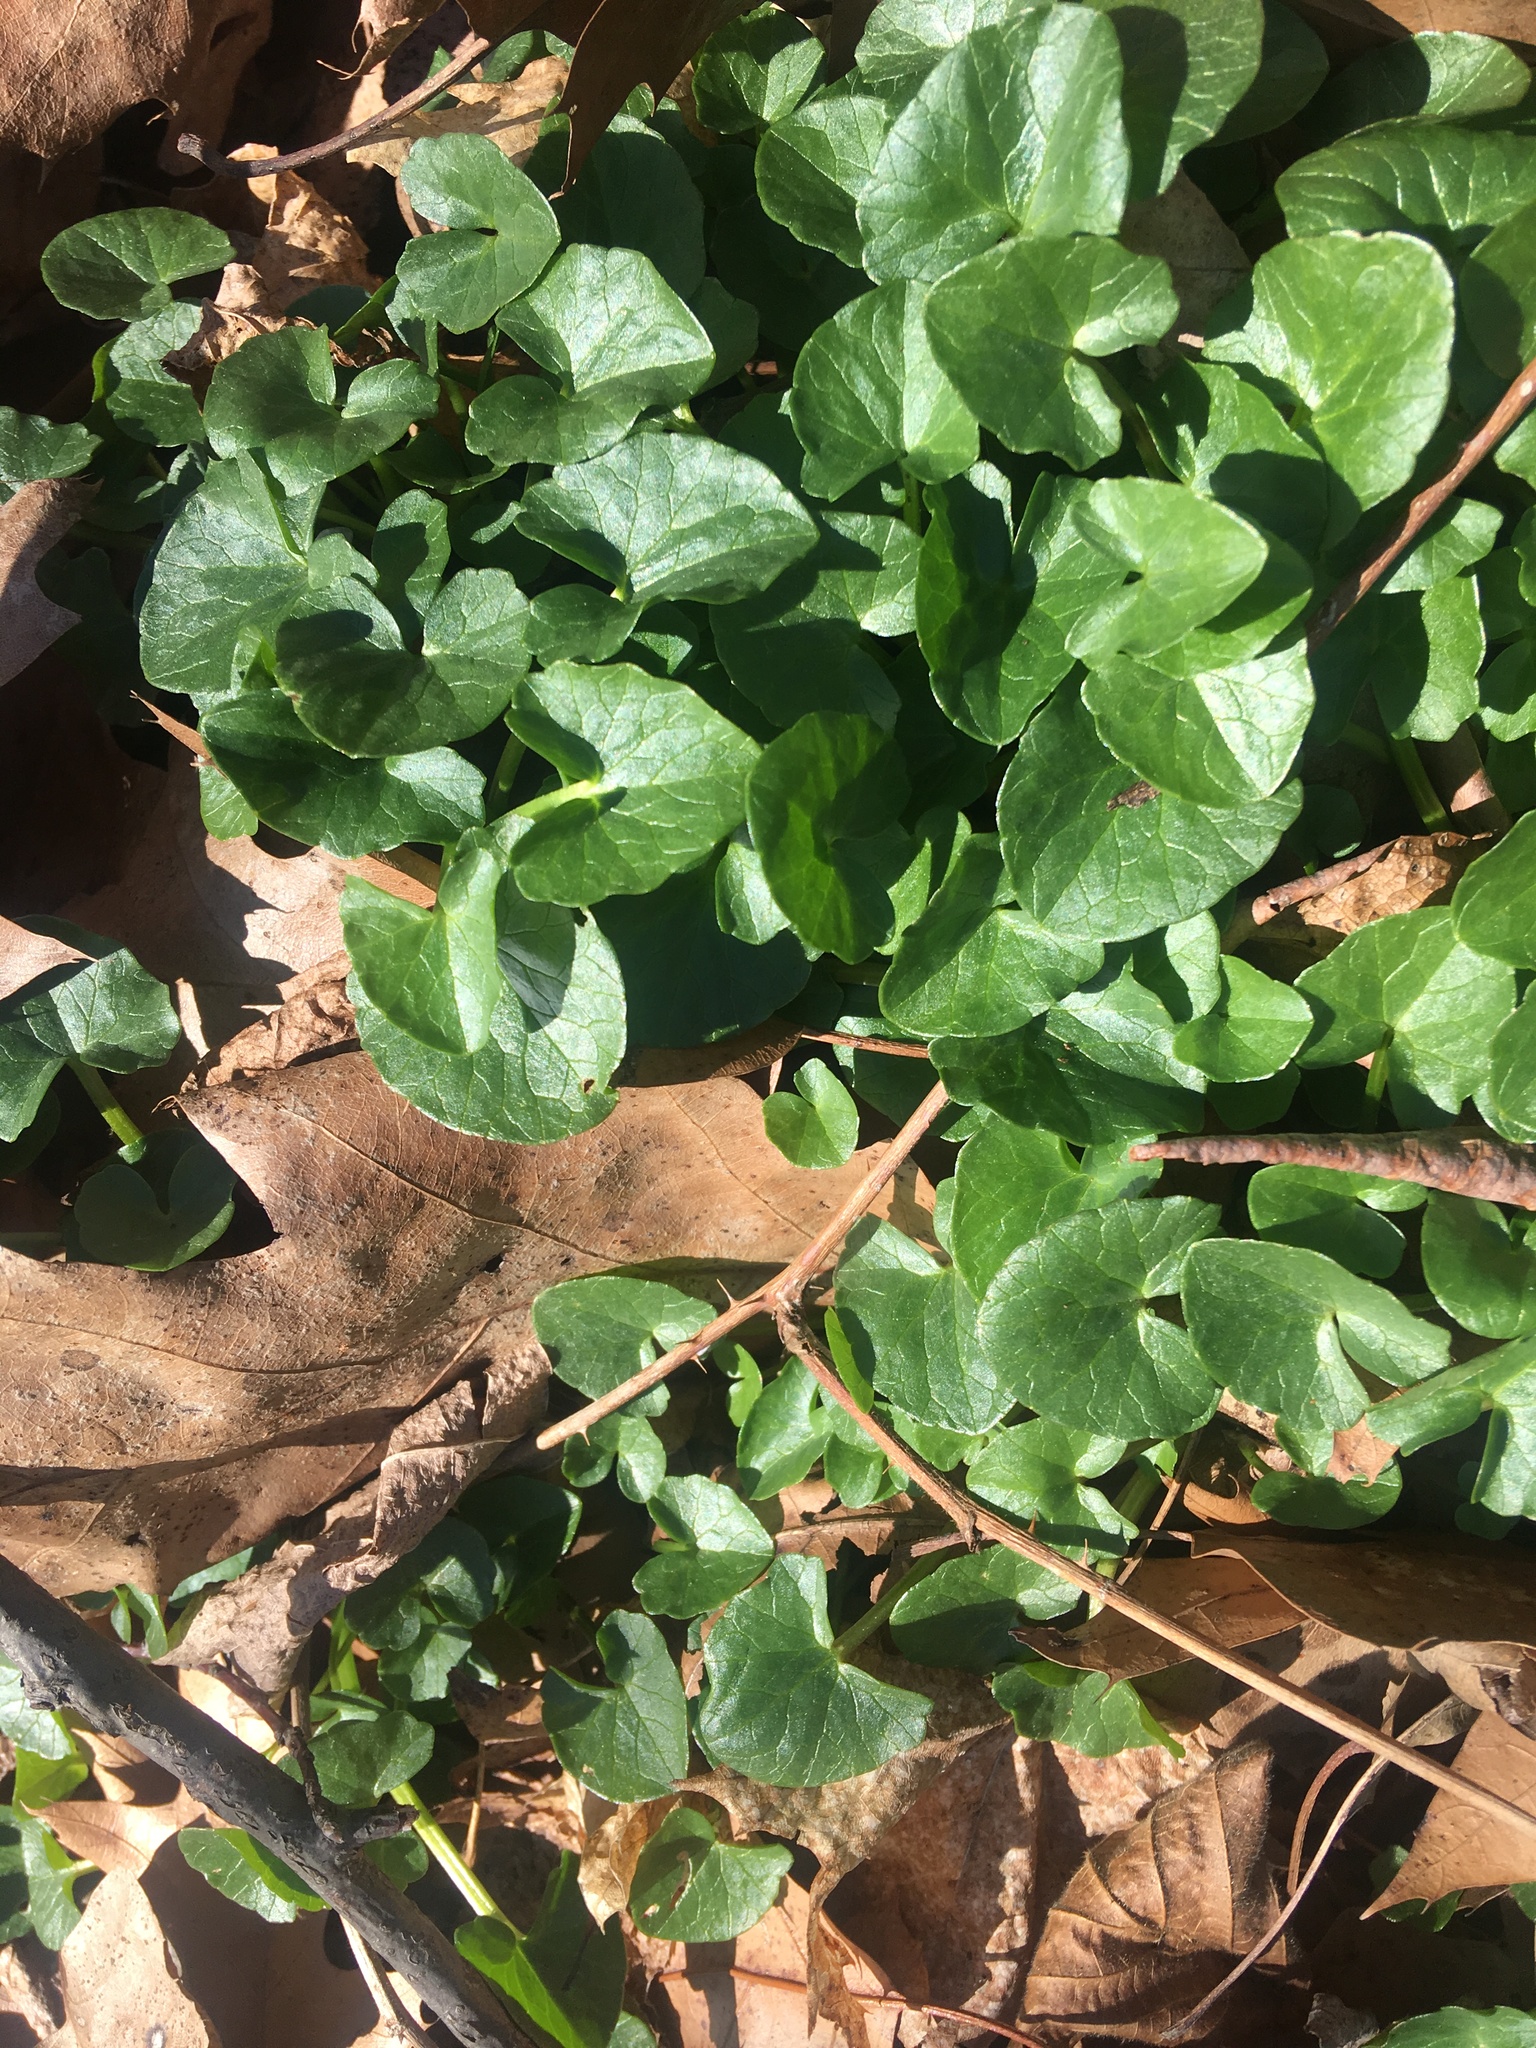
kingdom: Plantae
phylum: Tracheophyta
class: Magnoliopsida
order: Ranunculales
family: Ranunculaceae
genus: Ficaria
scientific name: Ficaria verna
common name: Lesser celandine
